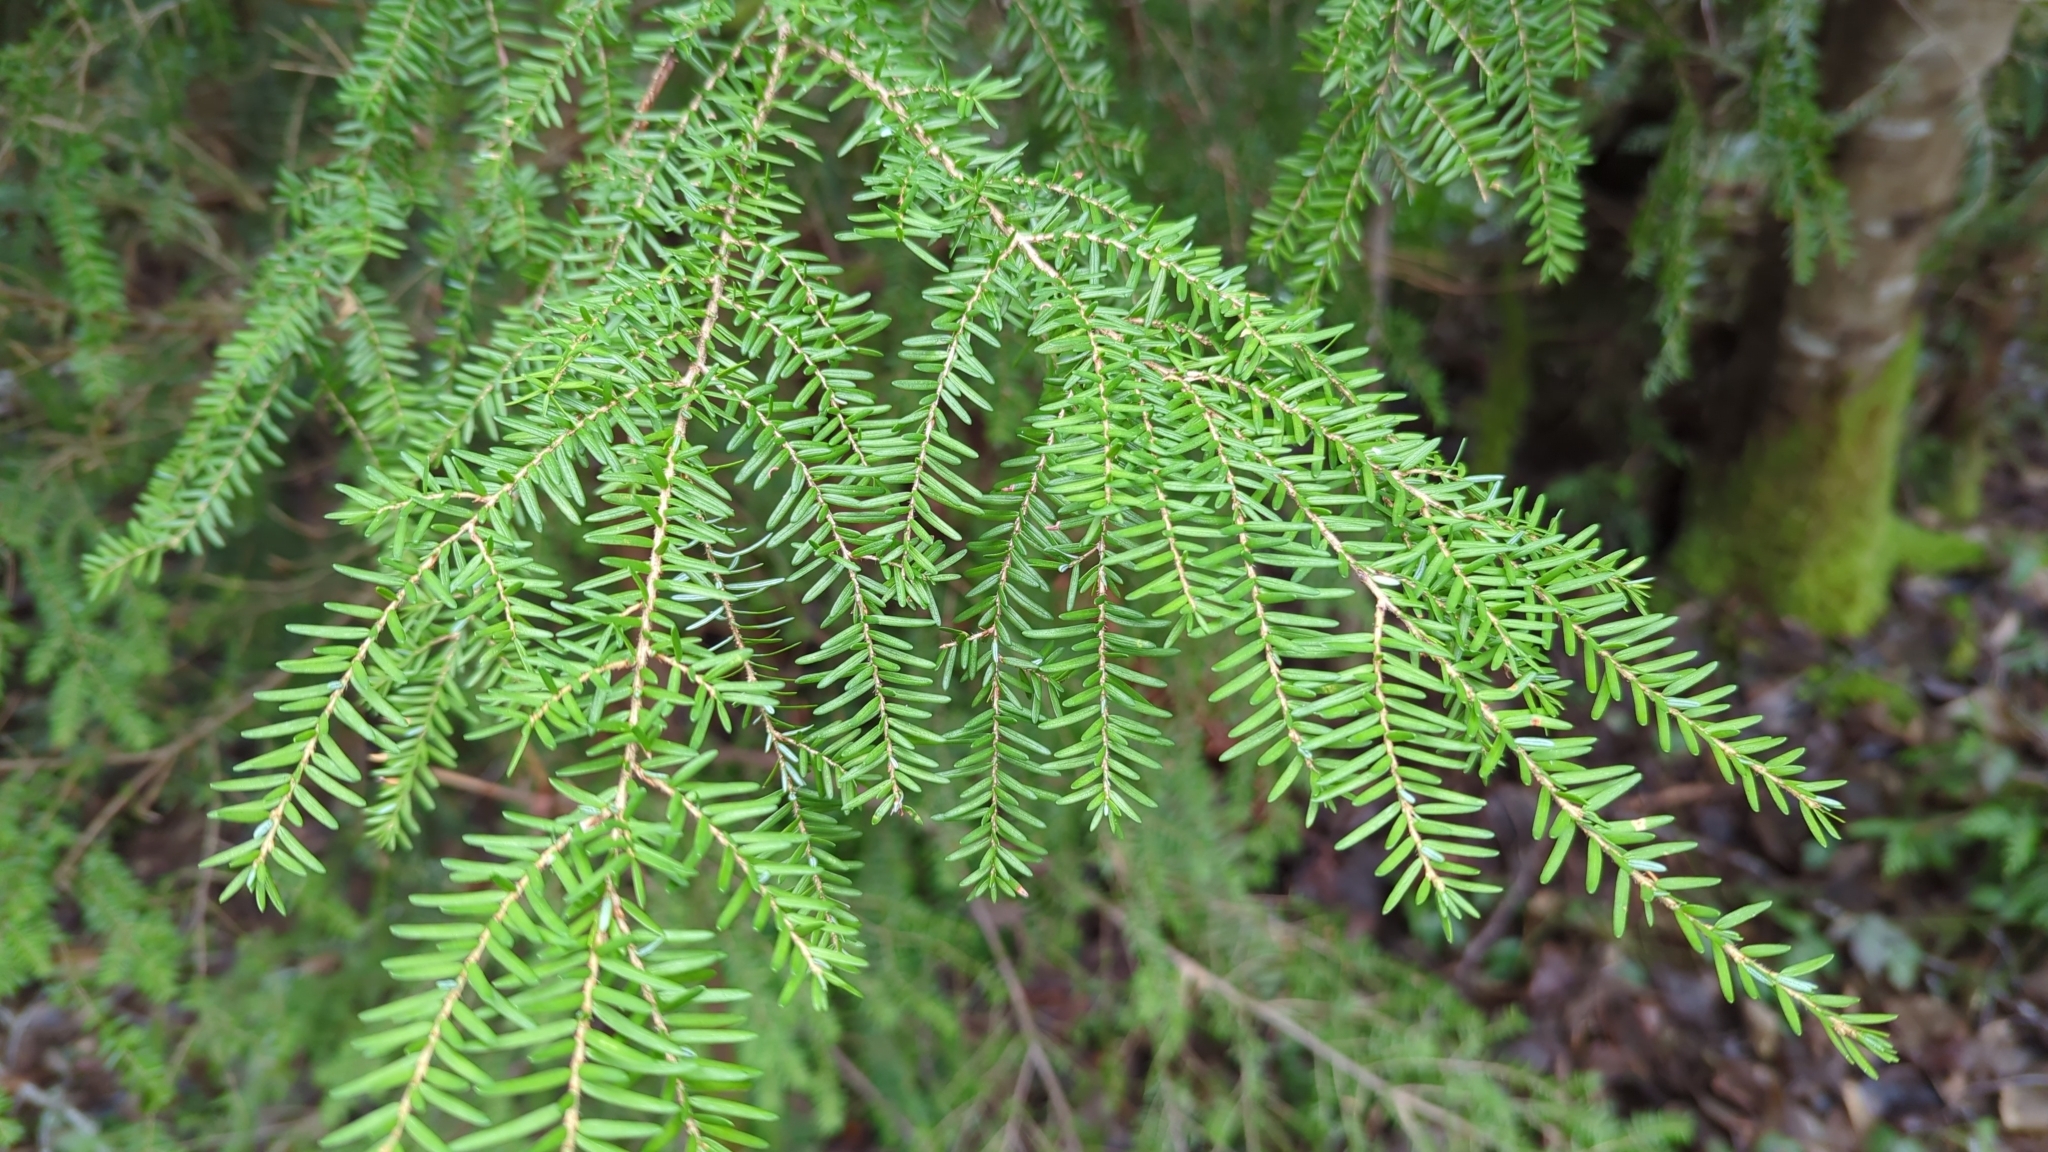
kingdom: Plantae
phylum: Tracheophyta
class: Pinopsida
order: Pinales
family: Pinaceae
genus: Tsuga
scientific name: Tsuga heterophylla
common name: Western hemlock
